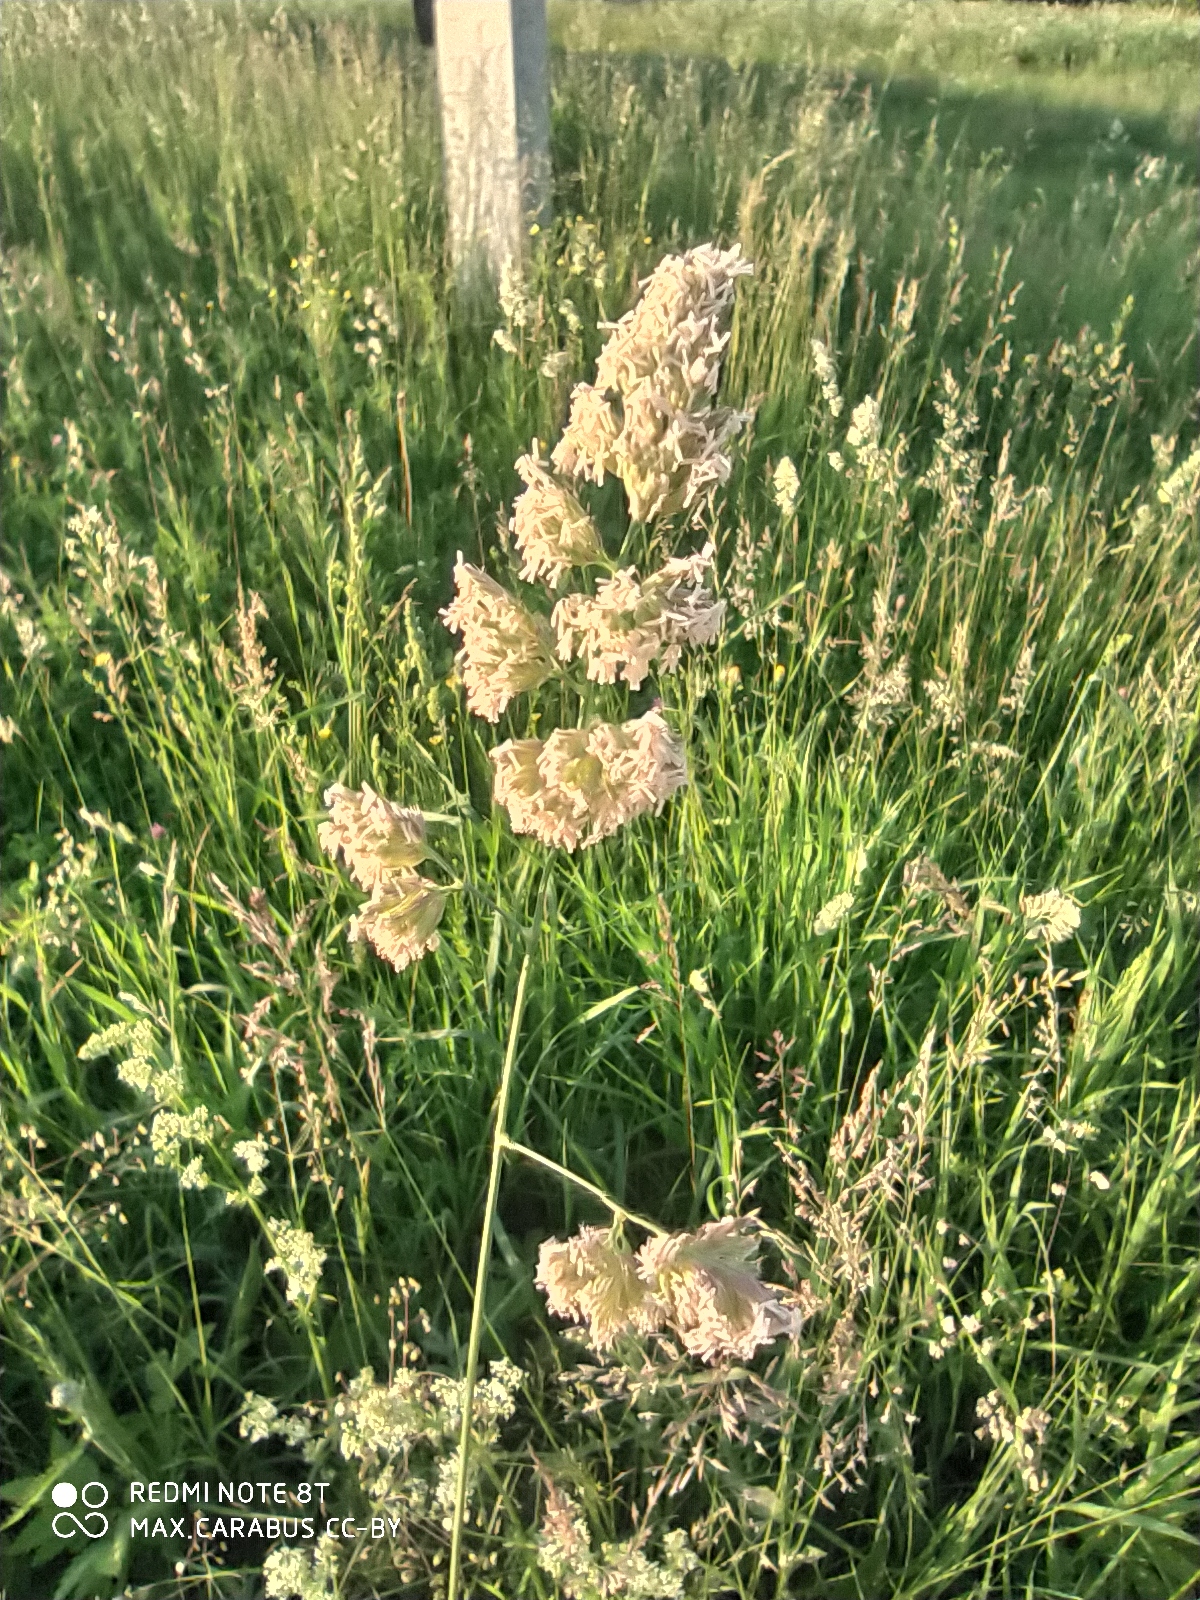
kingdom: Plantae
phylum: Tracheophyta
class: Liliopsida
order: Poales
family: Poaceae
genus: Dactylis
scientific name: Dactylis glomerata
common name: Orchardgrass
